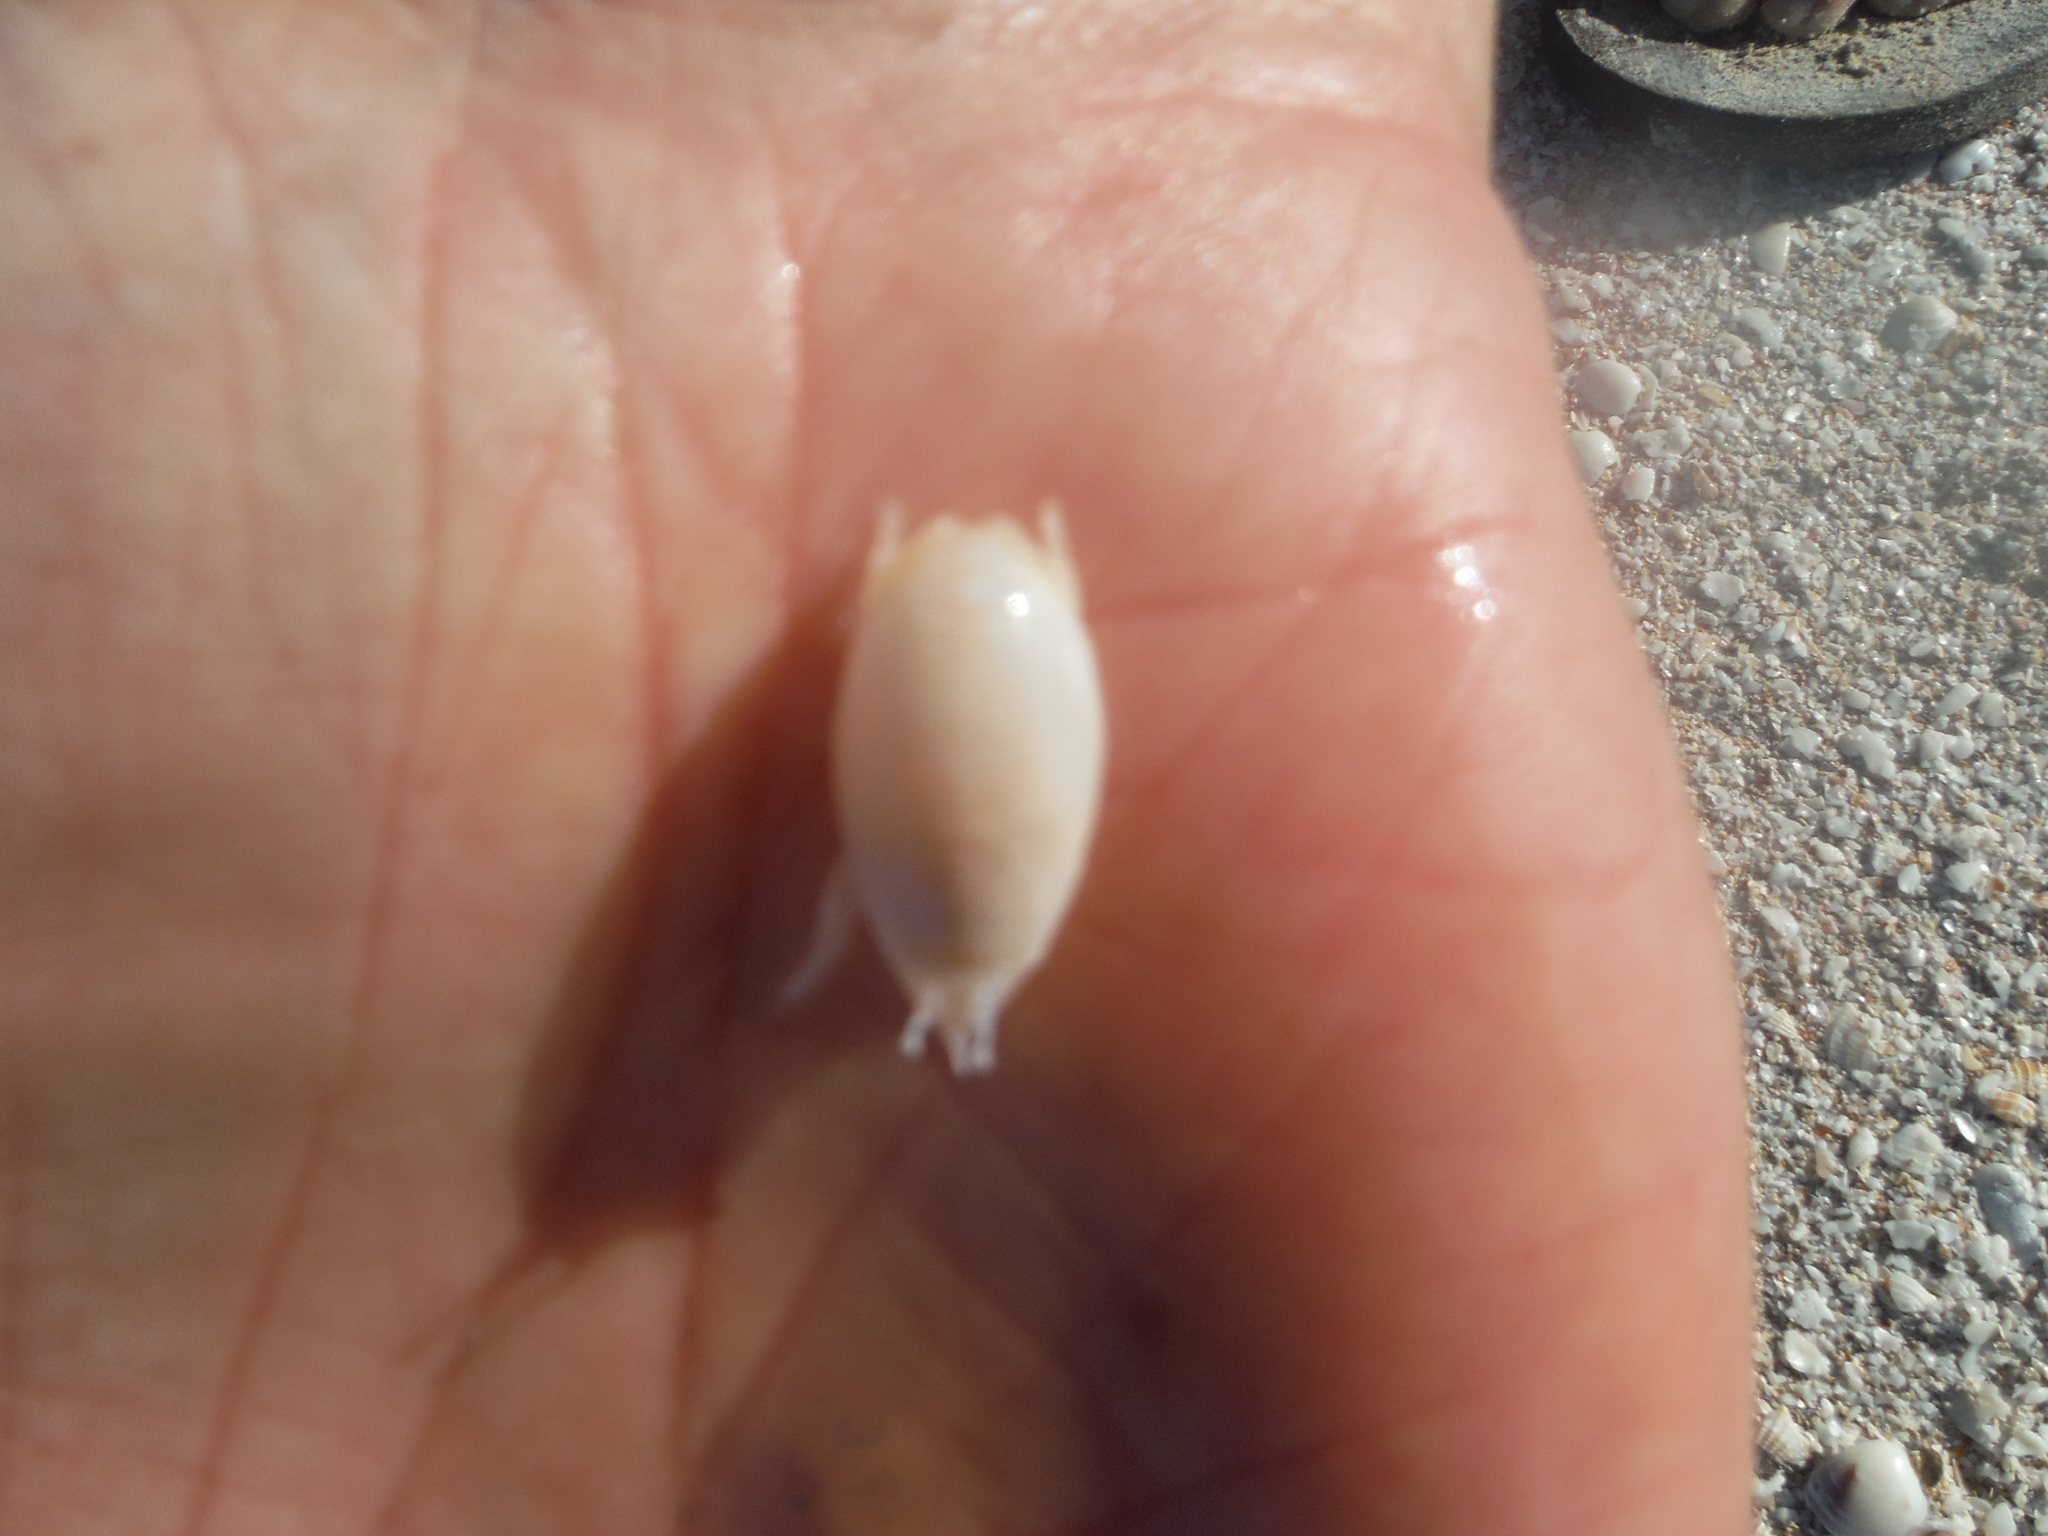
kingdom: Animalia
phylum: Arthropoda
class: Malacostraca
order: Decapoda
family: Hippidae
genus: Emerita
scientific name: Emerita
